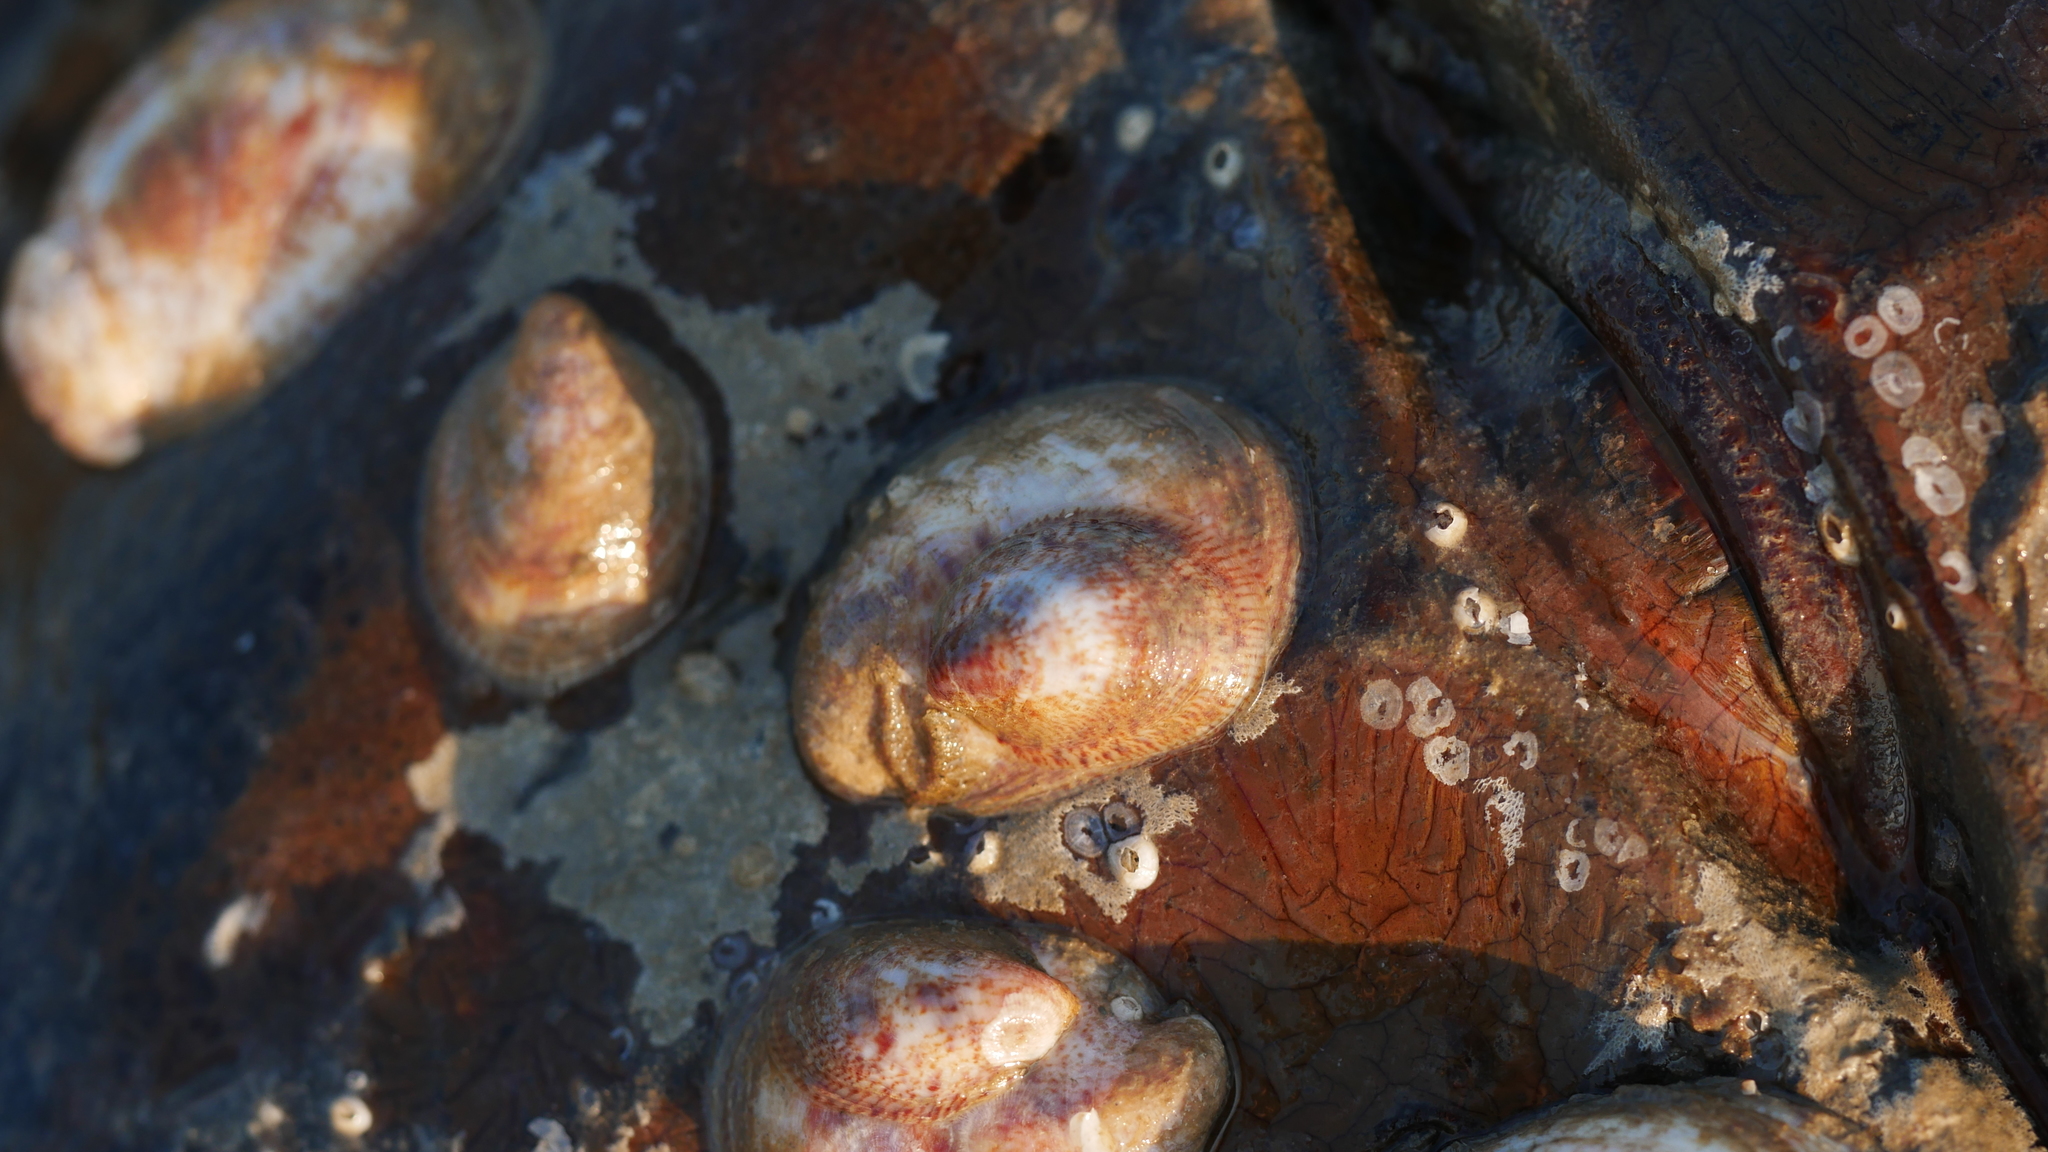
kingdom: Animalia
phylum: Mollusca
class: Gastropoda
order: Littorinimorpha
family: Calyptraeidae
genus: Crepidula
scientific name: Crepidula fornicata
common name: Slipper limpet
